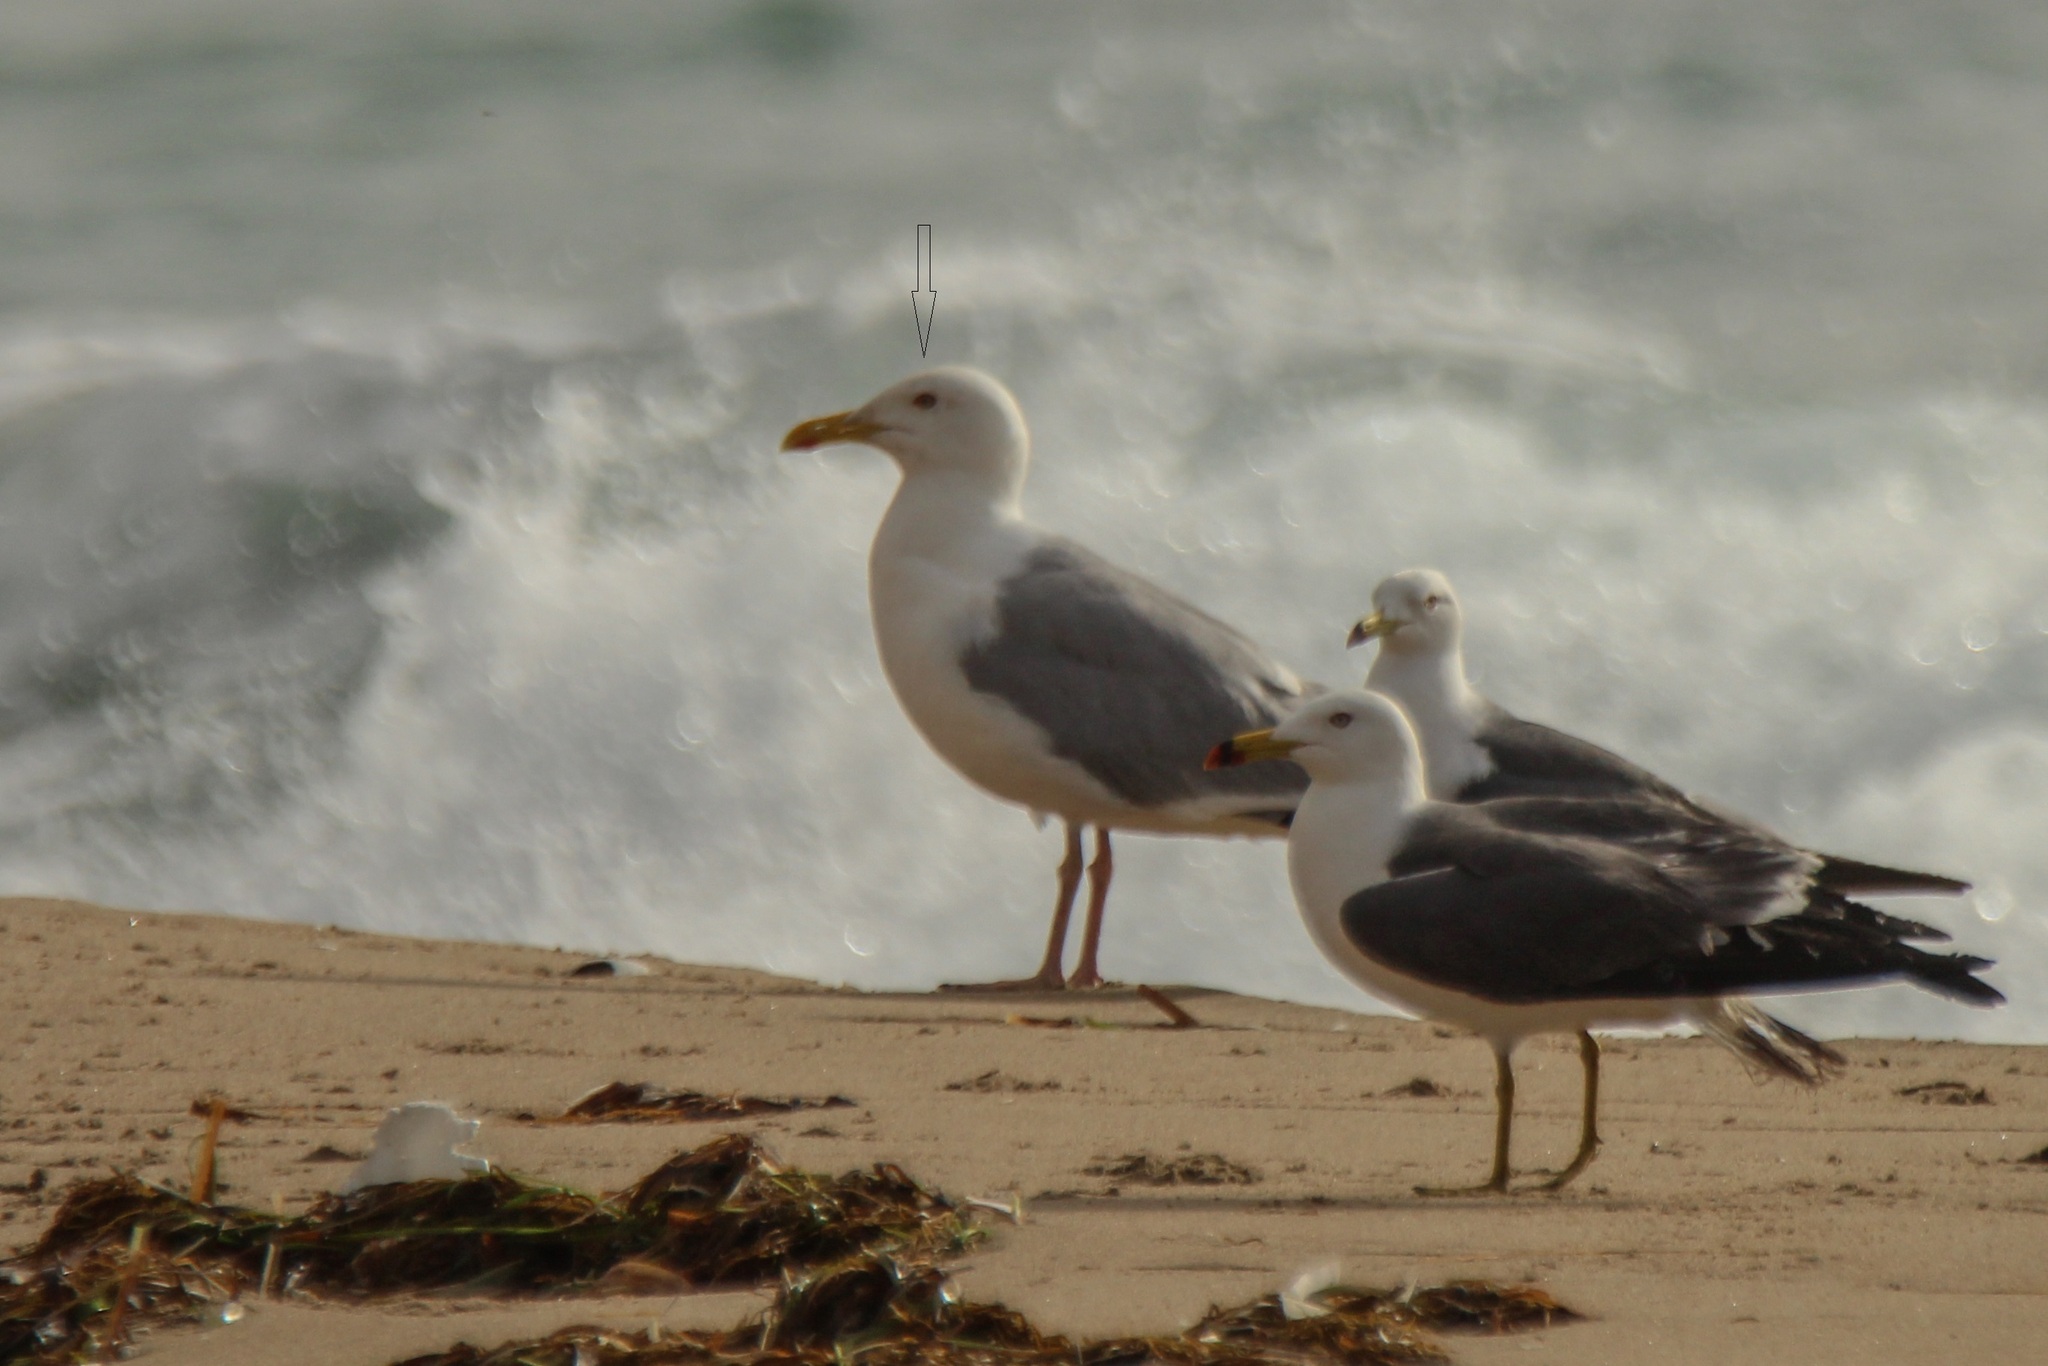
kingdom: Animalia
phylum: Chordata
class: Aves
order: Charadriiformes
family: Laridae
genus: Larus
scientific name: Larus vegae
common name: Vega gull
